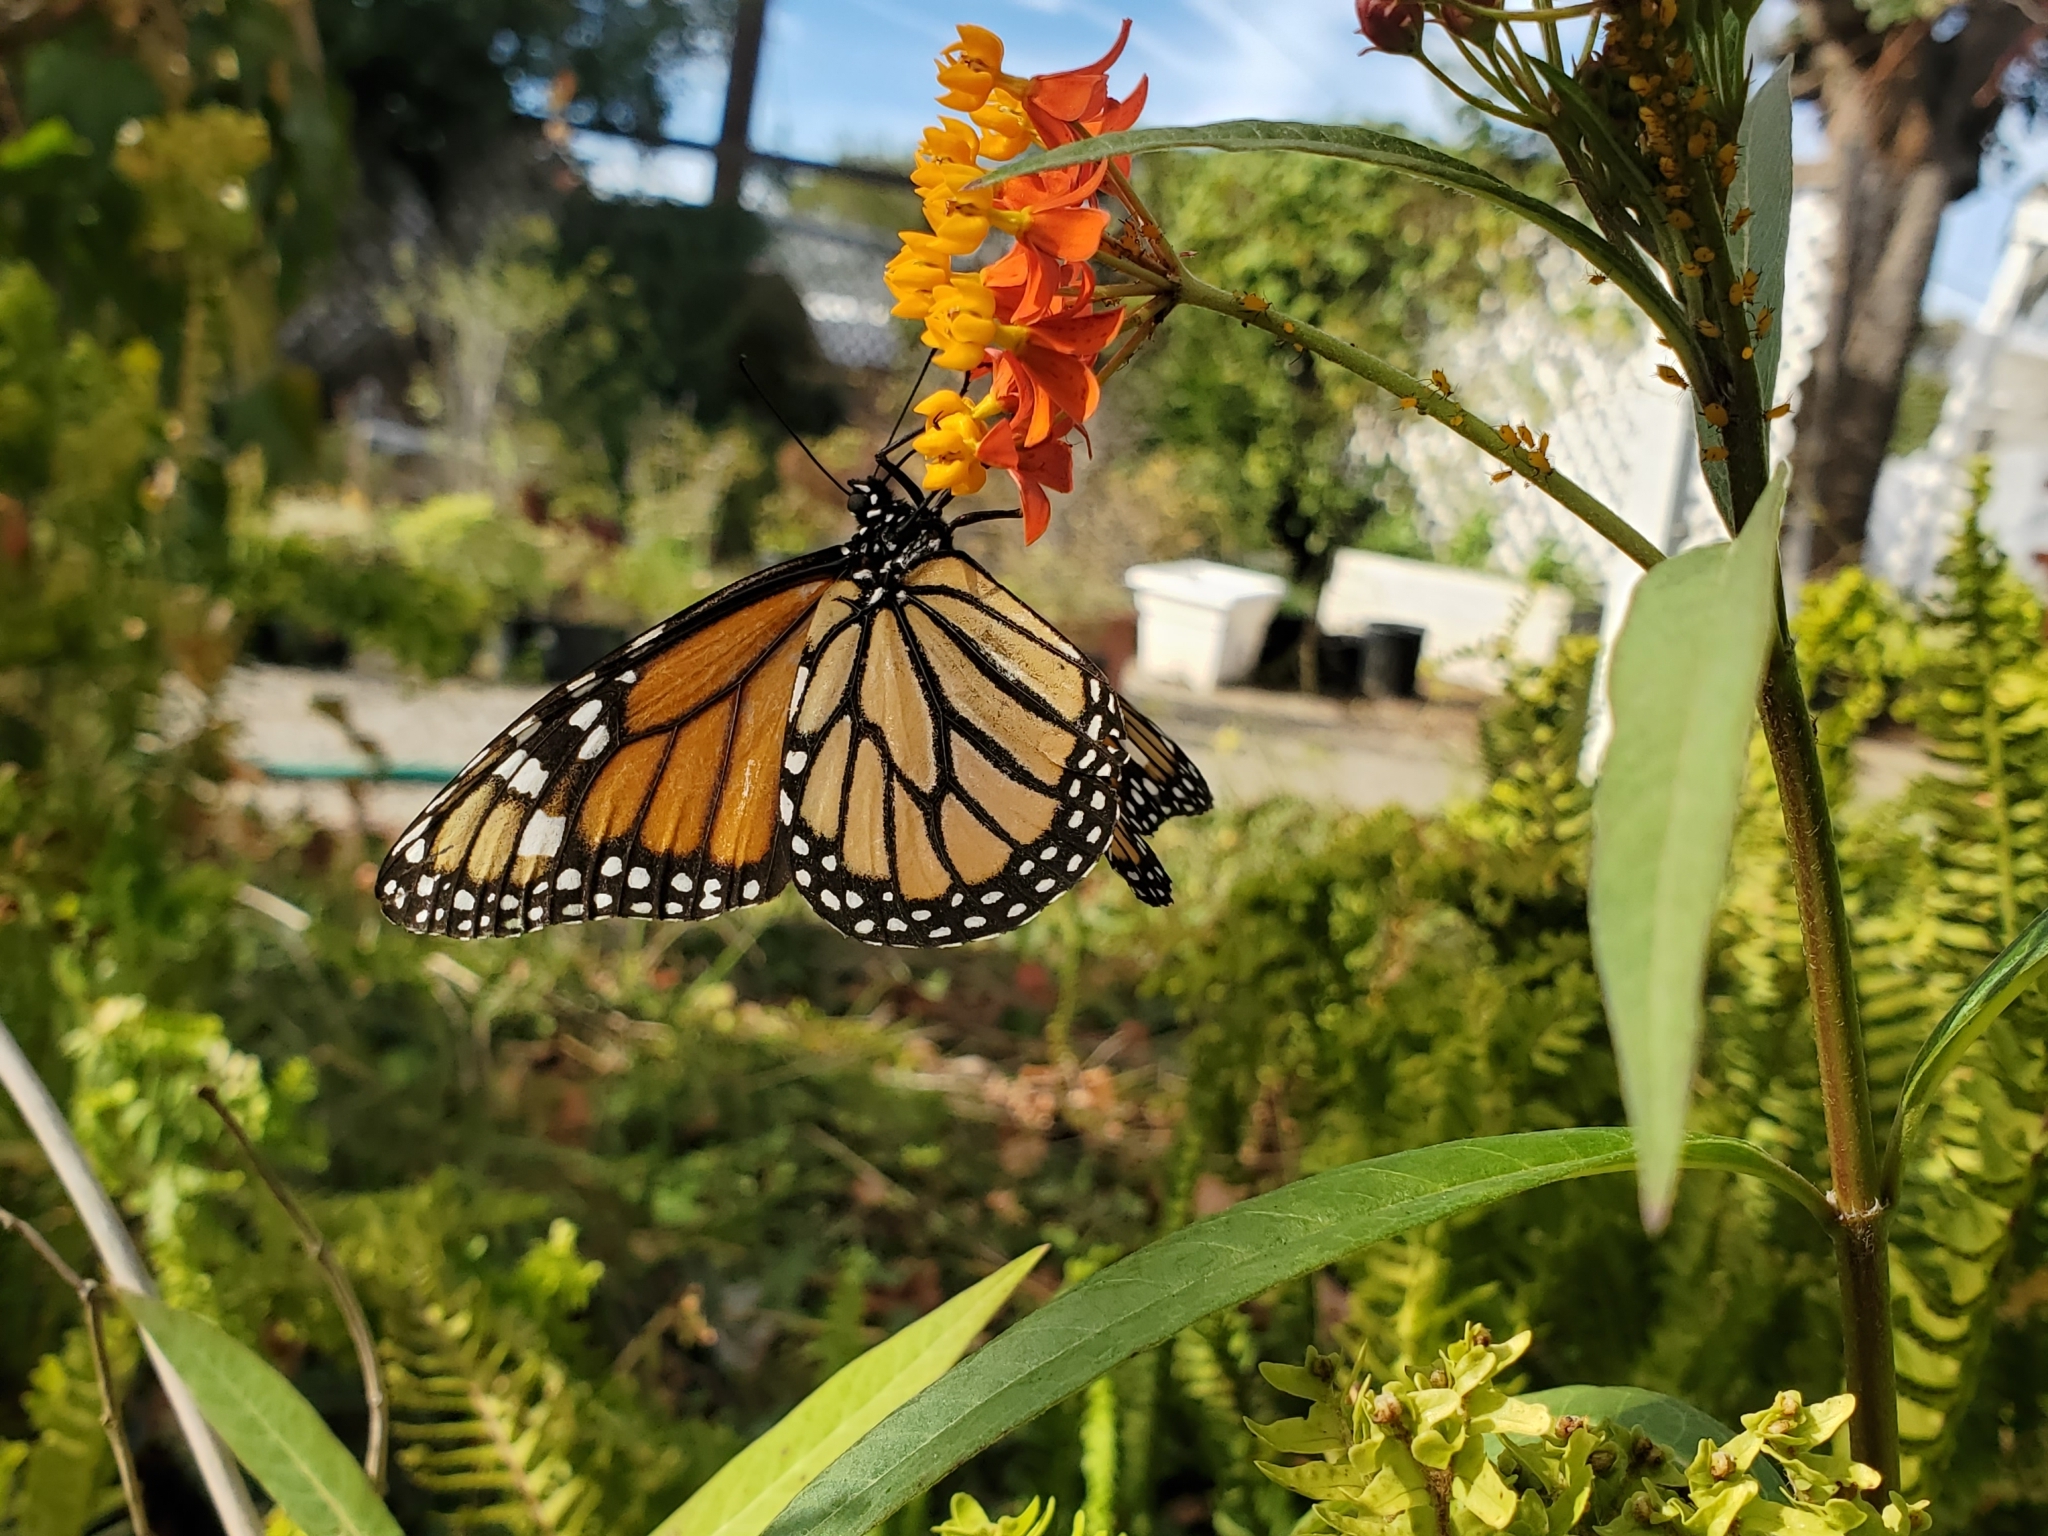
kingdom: Animalia
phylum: Arthropoda
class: Insecta
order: Lepidoptera
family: Nymphalidae
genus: Danaus
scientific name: Danaus plexippus
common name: Monarch
